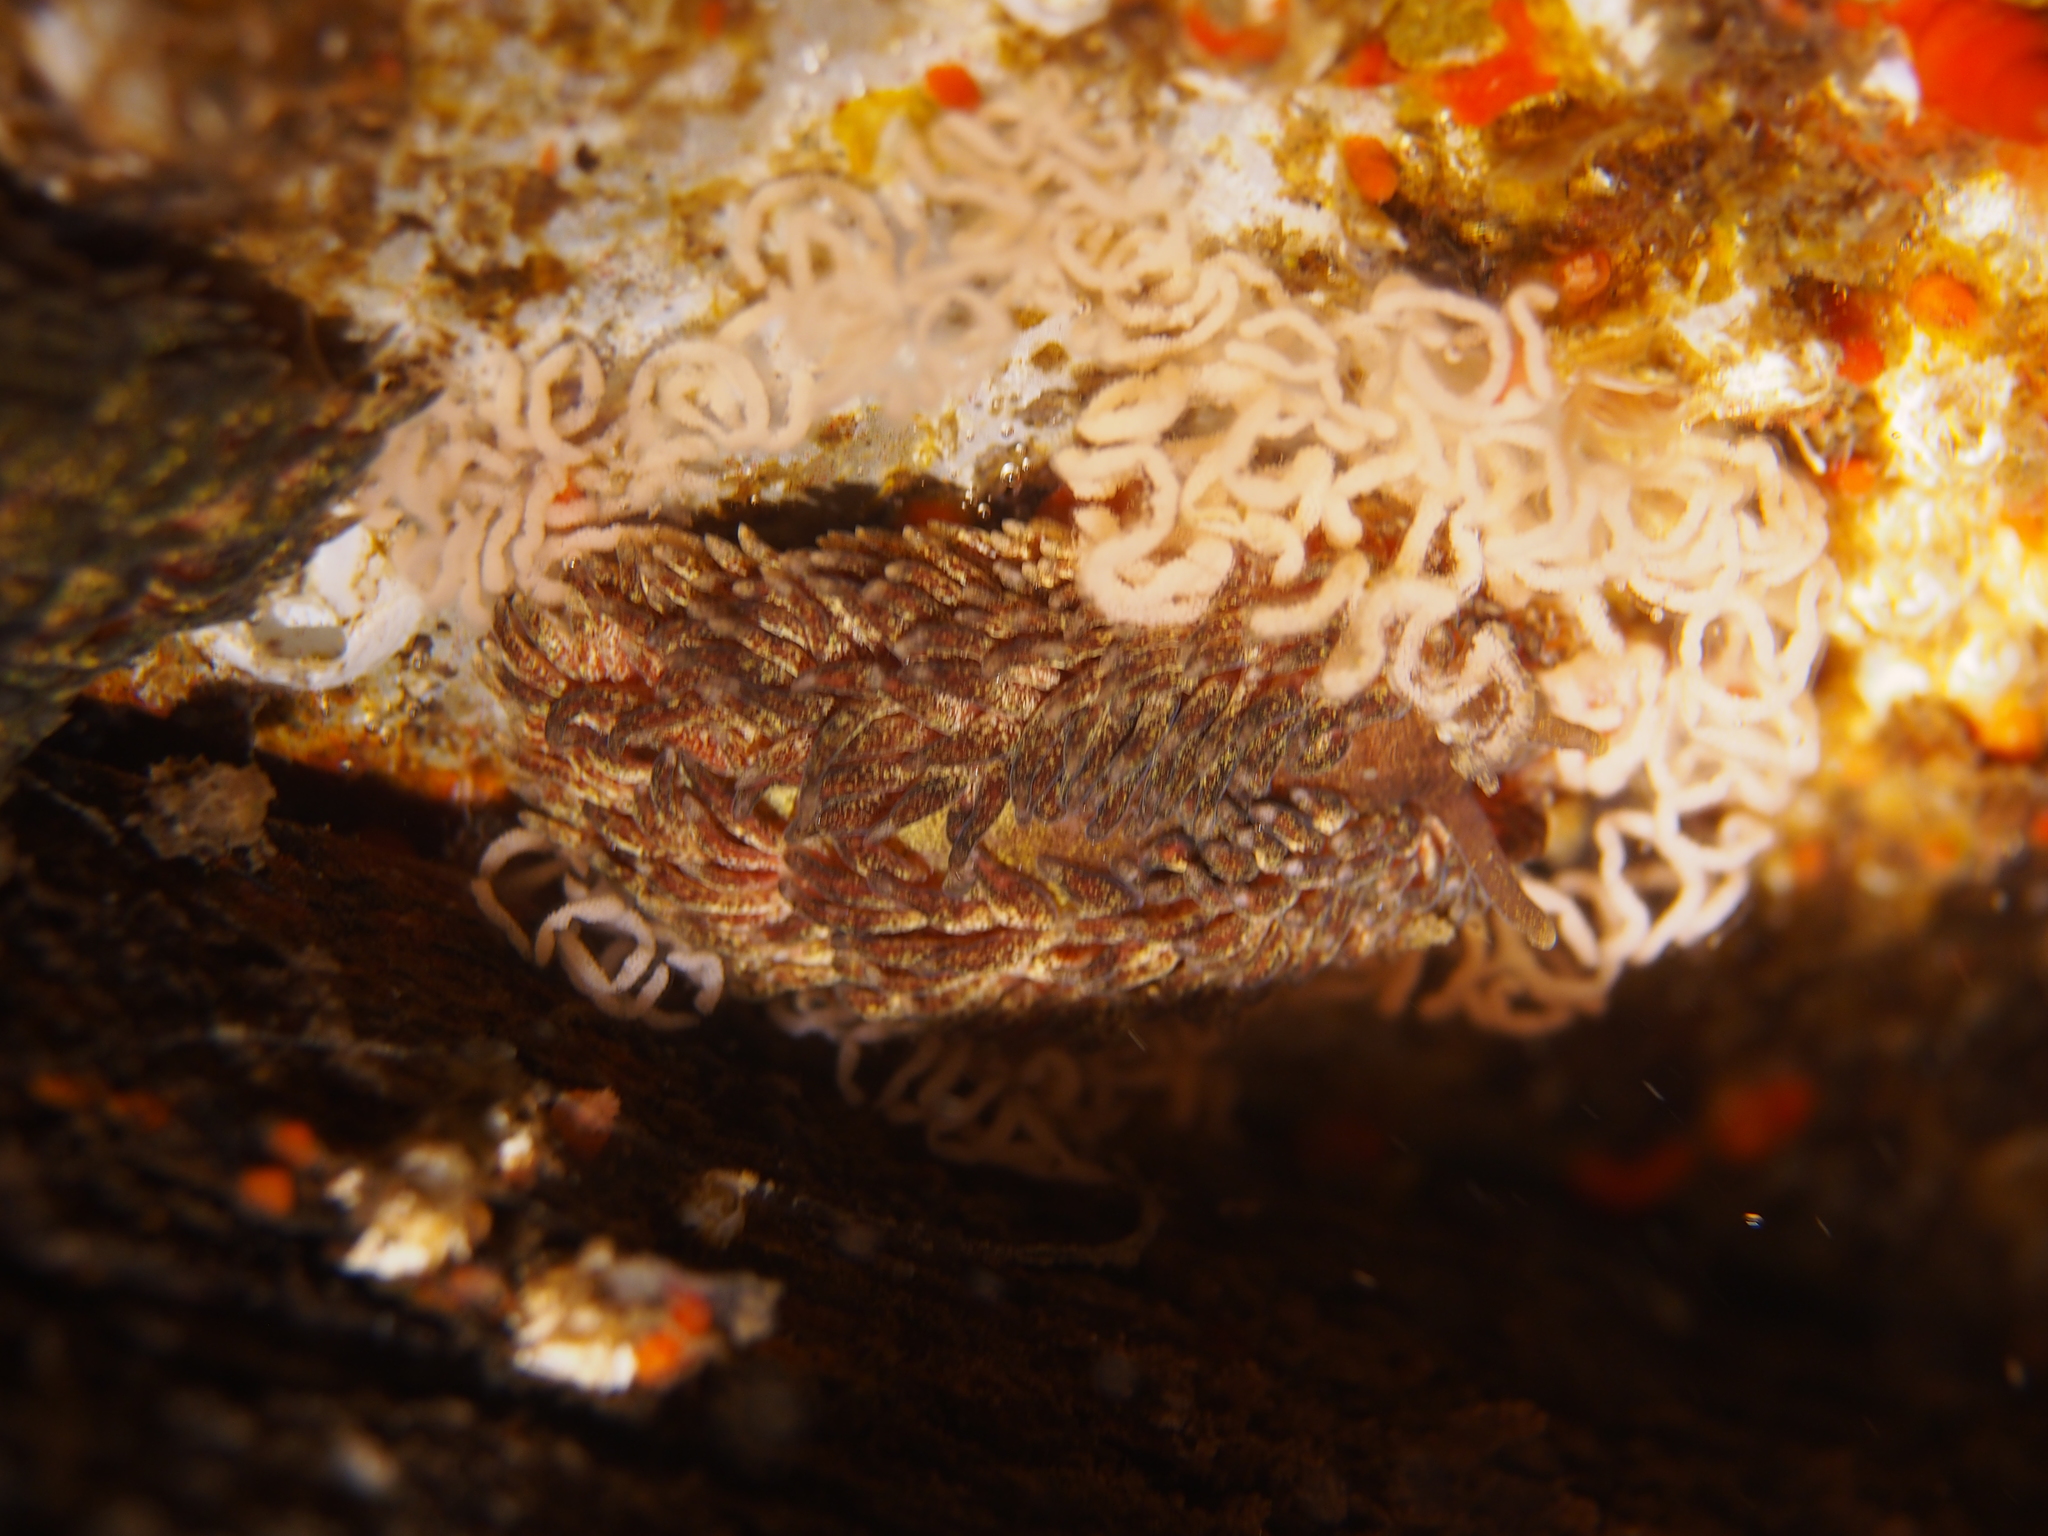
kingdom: Animalia
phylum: Mollusca
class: Gastropoda
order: Nudibranchia
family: Aeolidiidae
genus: Aeolidia
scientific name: Aeolidia papillosa
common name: Common grey sea slug
